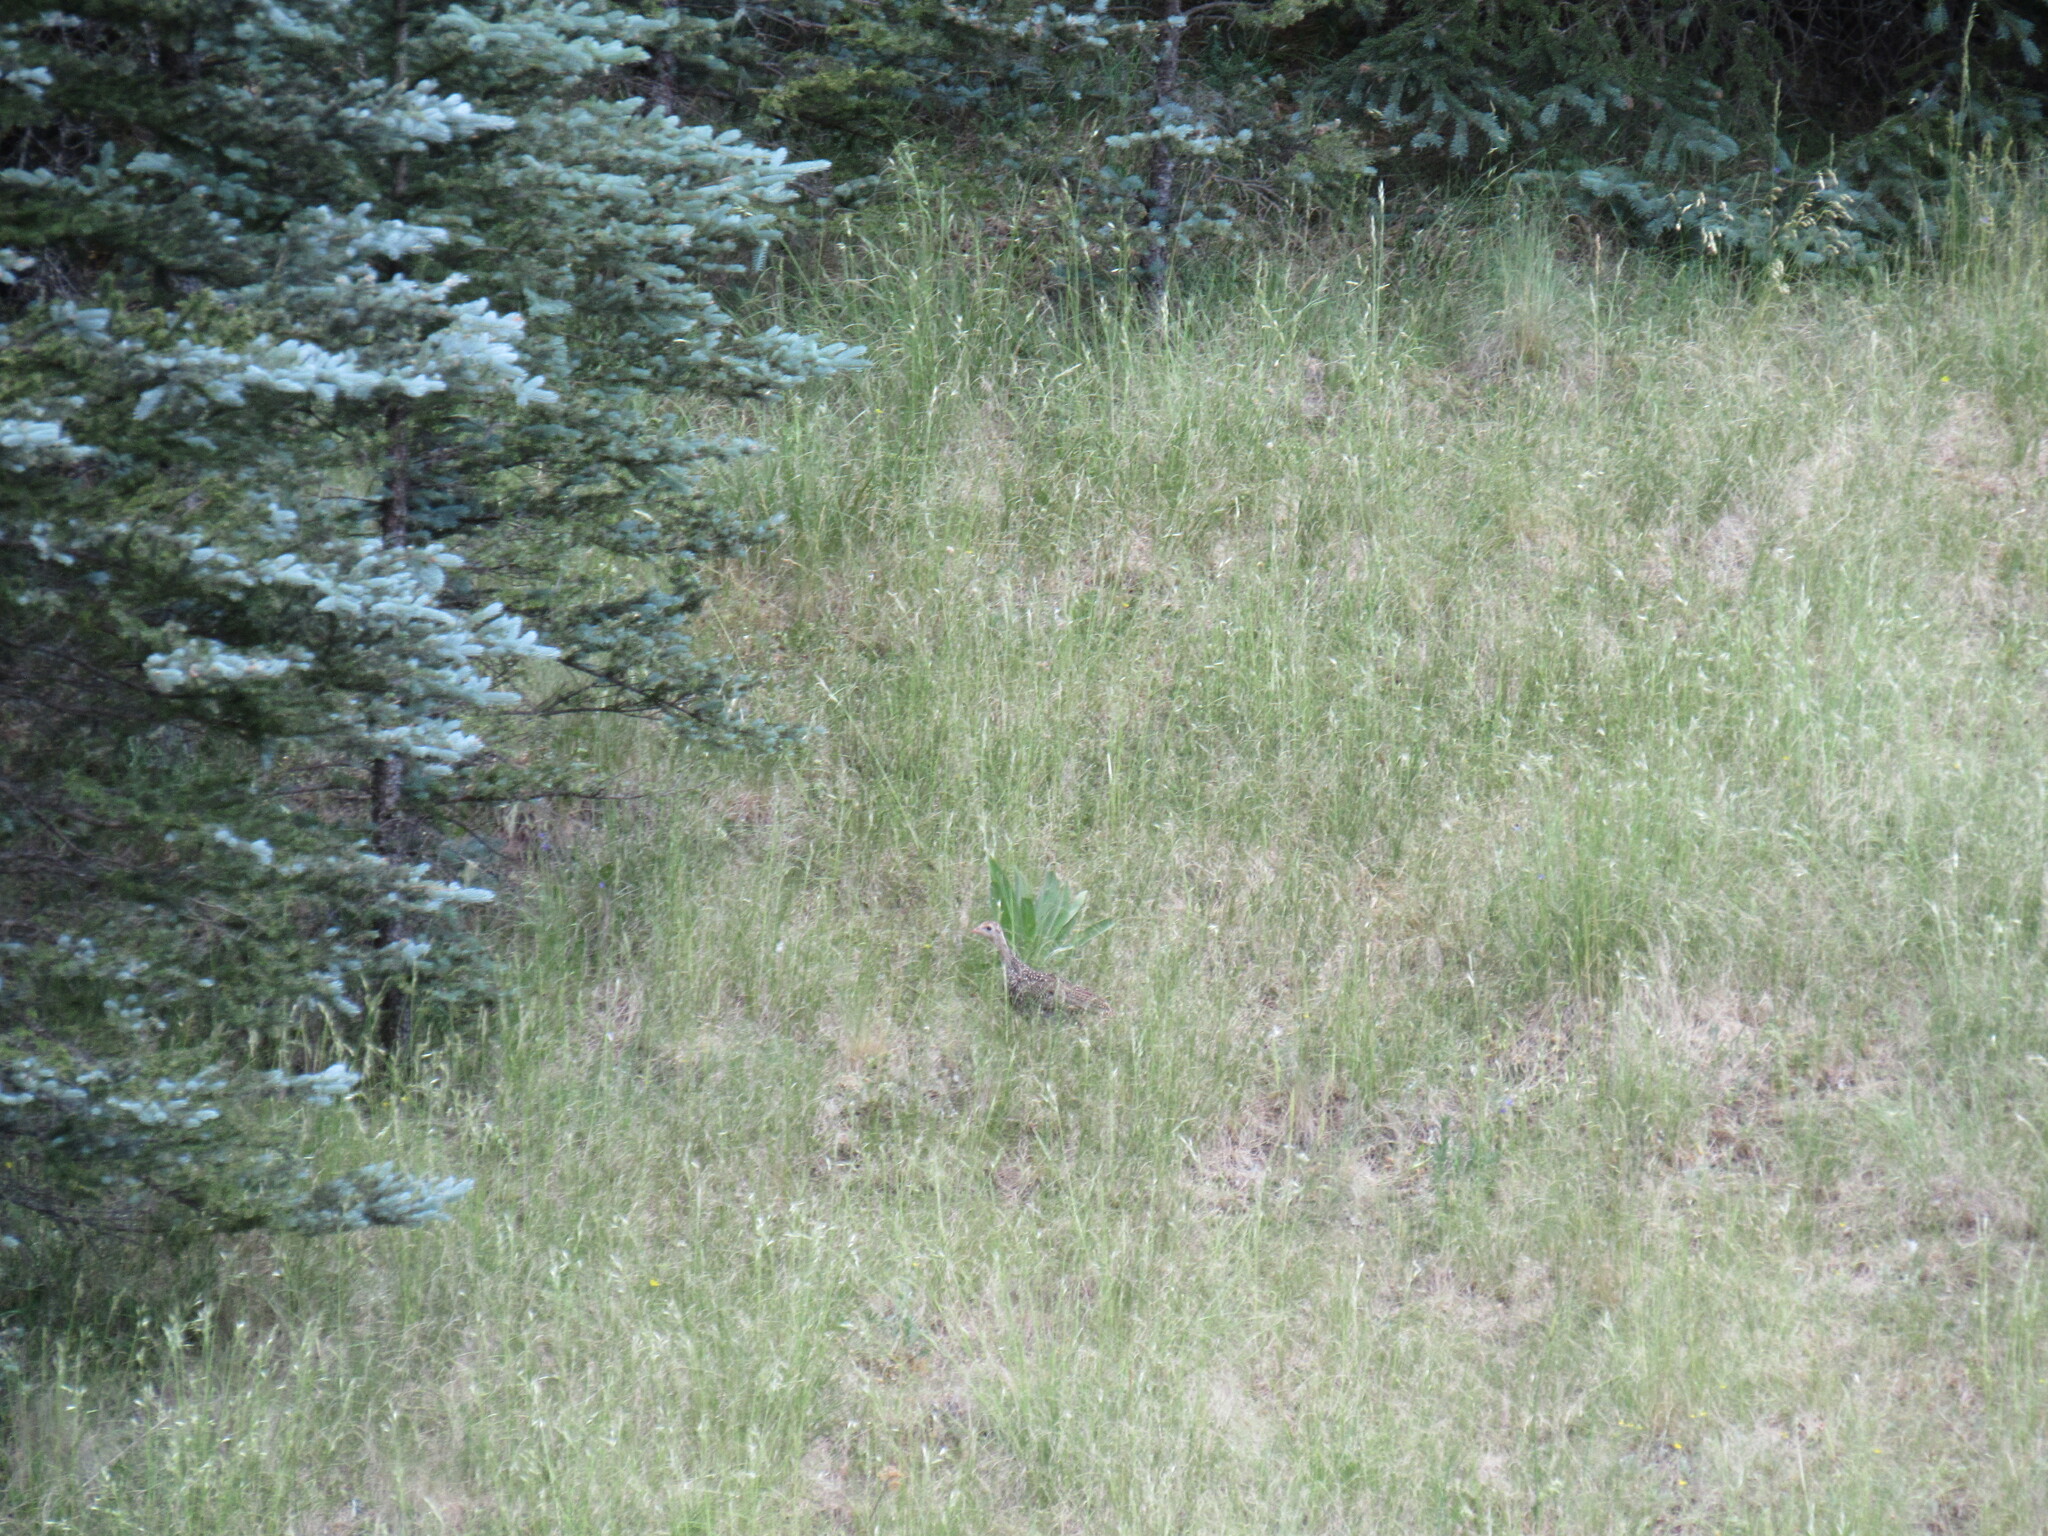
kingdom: Animalia
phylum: Chordata
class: Aves
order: Galliformes
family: Phasianidae
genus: Dendragapus
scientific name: Dendragapus obscurus
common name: Dusky grouse
